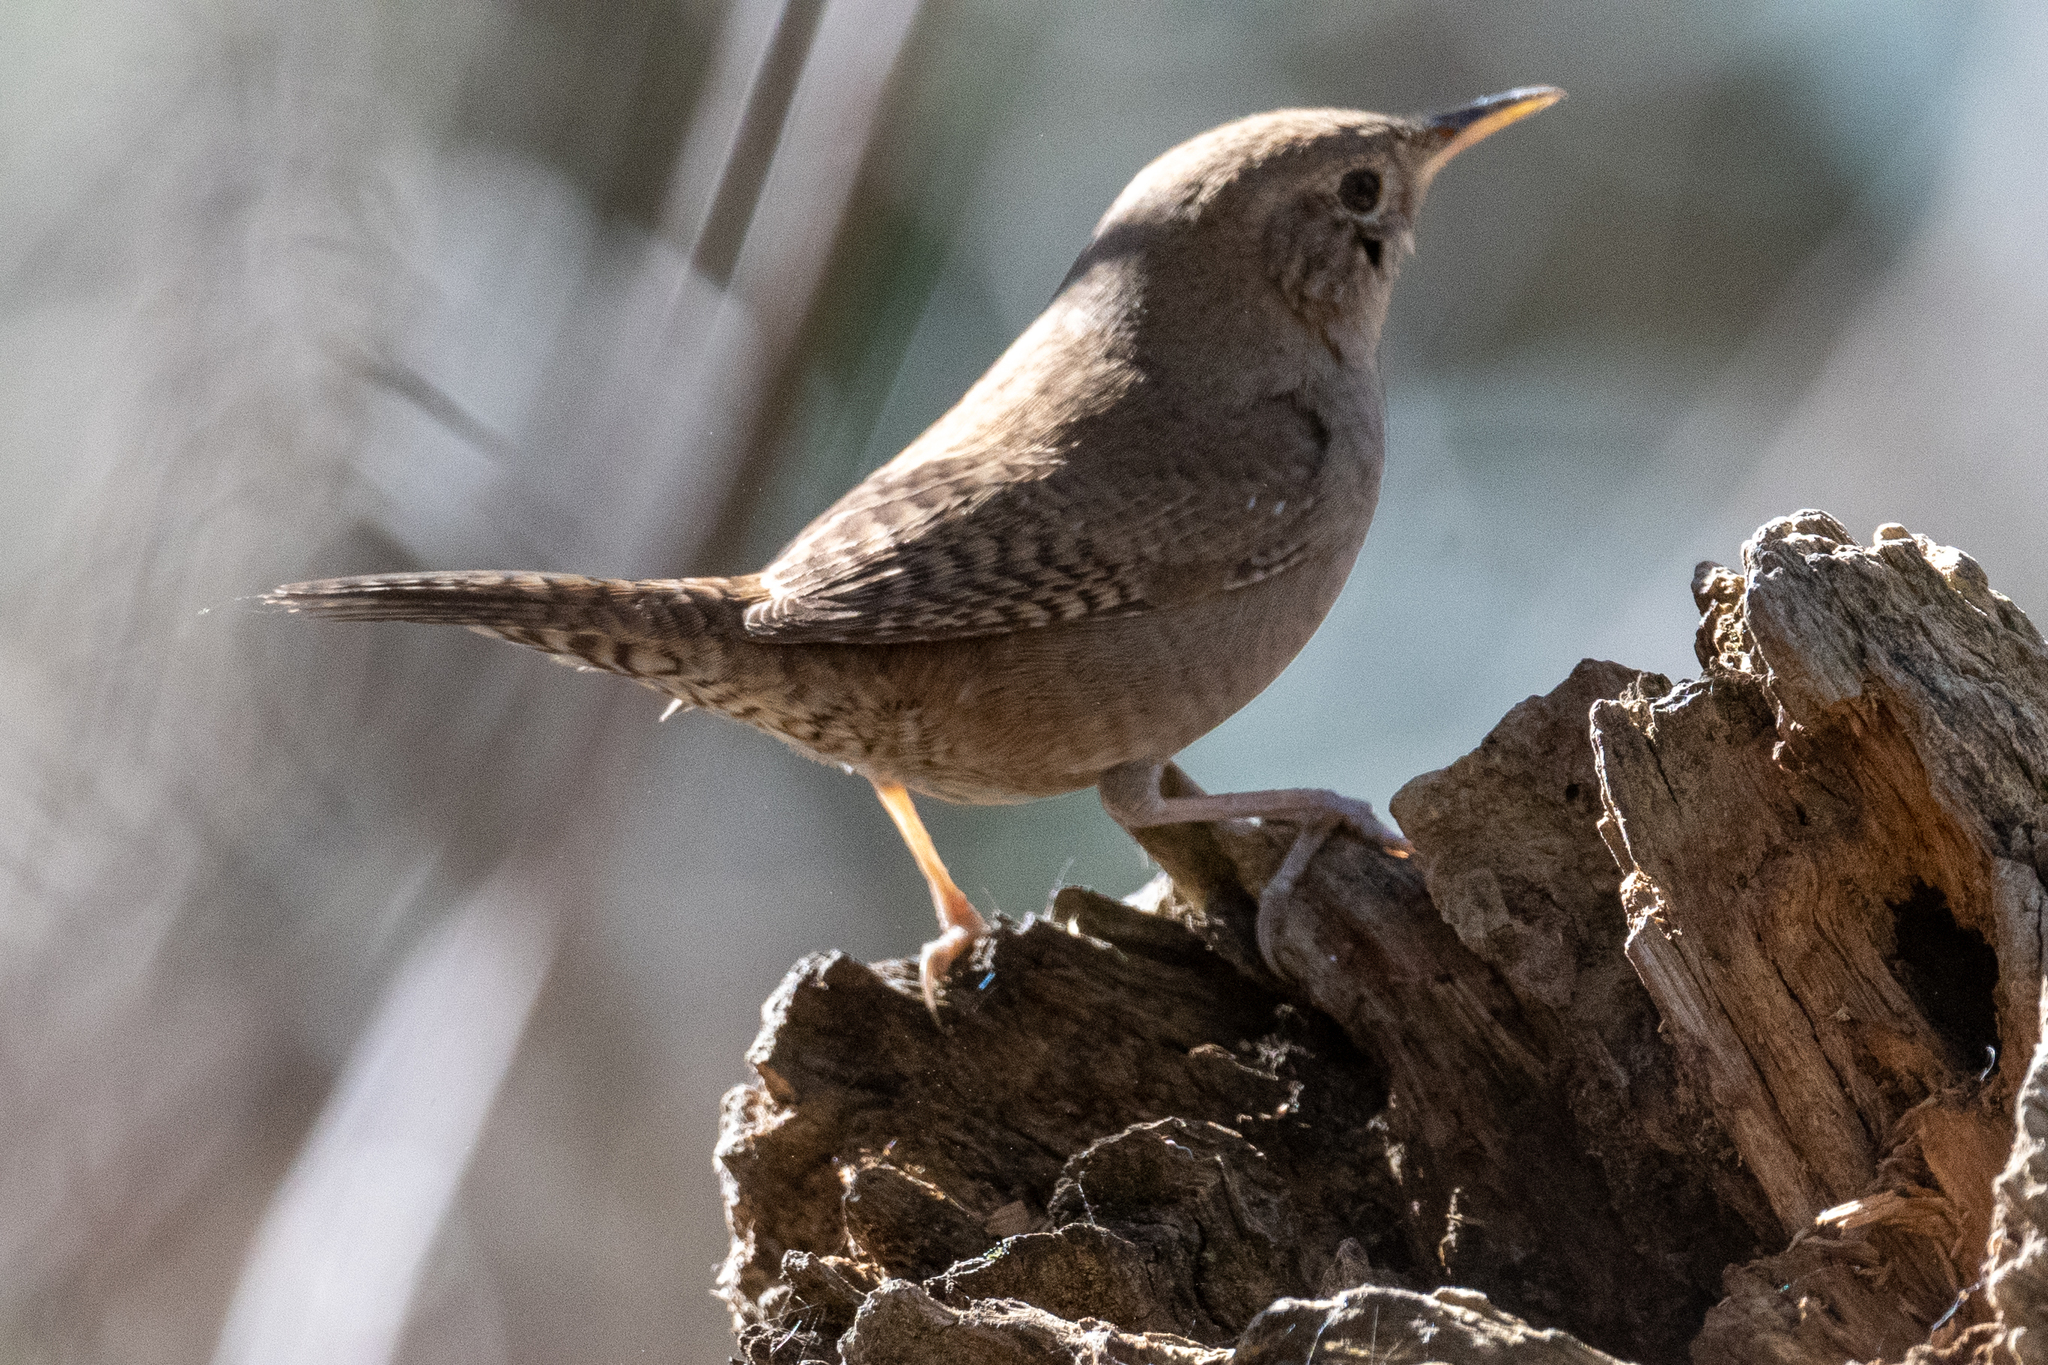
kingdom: Animalia
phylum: Chordata
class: Aves
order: Passeriformes
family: Troglodytidae
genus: Troglodytes
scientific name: Troglodytes aedon
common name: House wren
